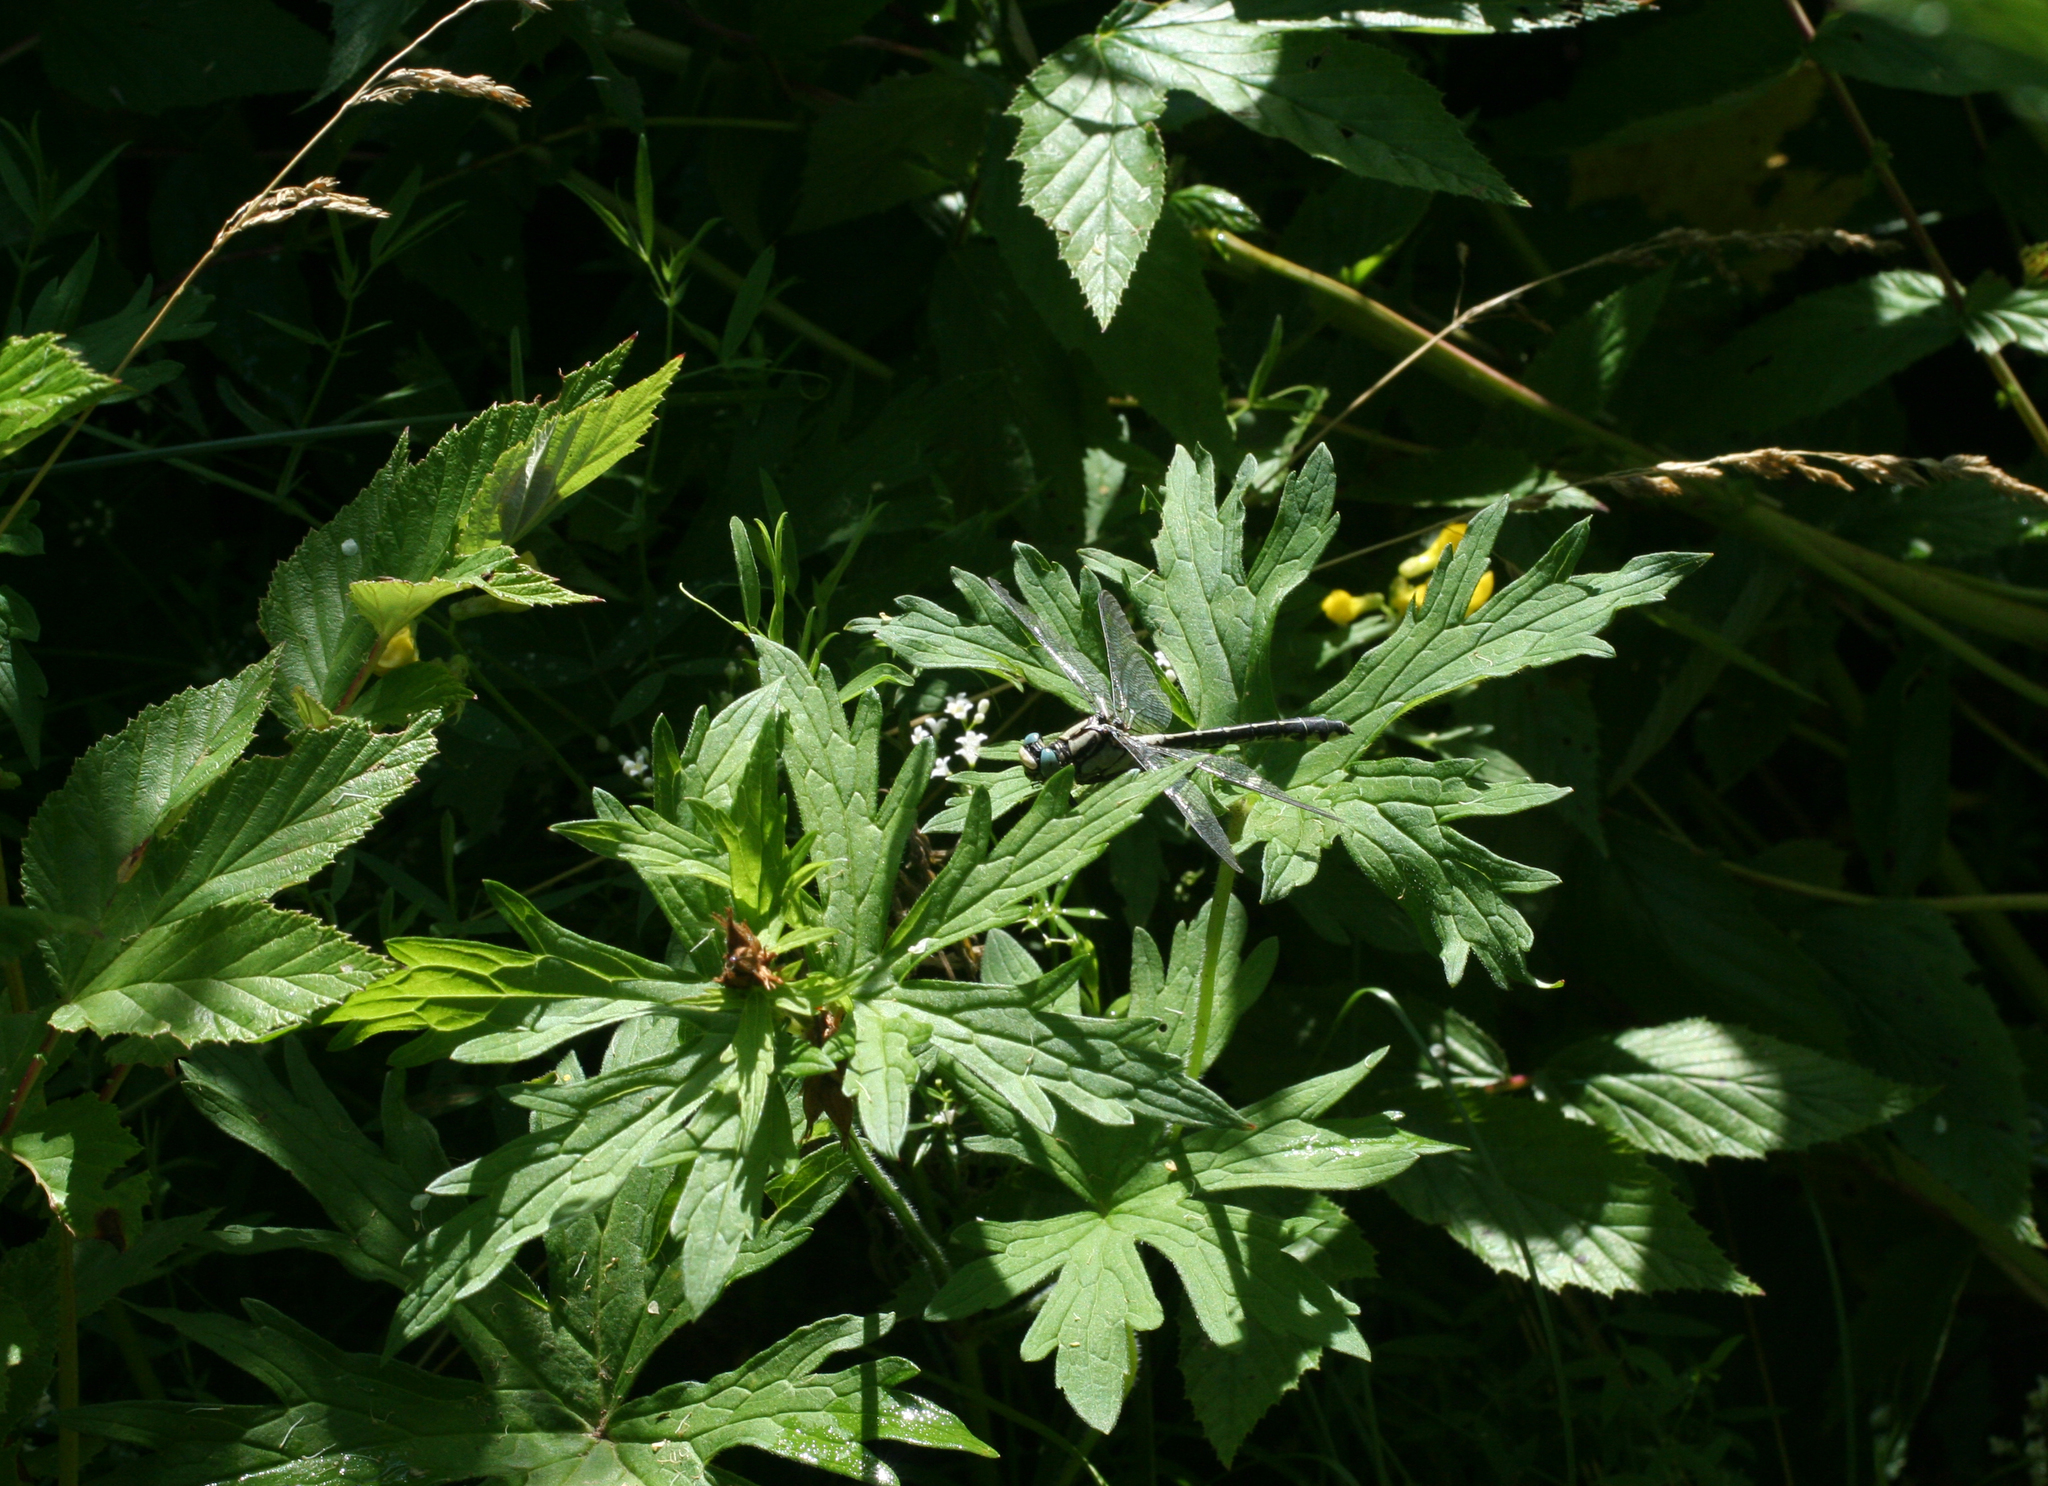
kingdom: Animalia
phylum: Arthropoda
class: Insecta
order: Odonata
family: Gomphidae
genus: Gomphus
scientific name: Gomphus vulgatissimus
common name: Club-tailed dragonfly
